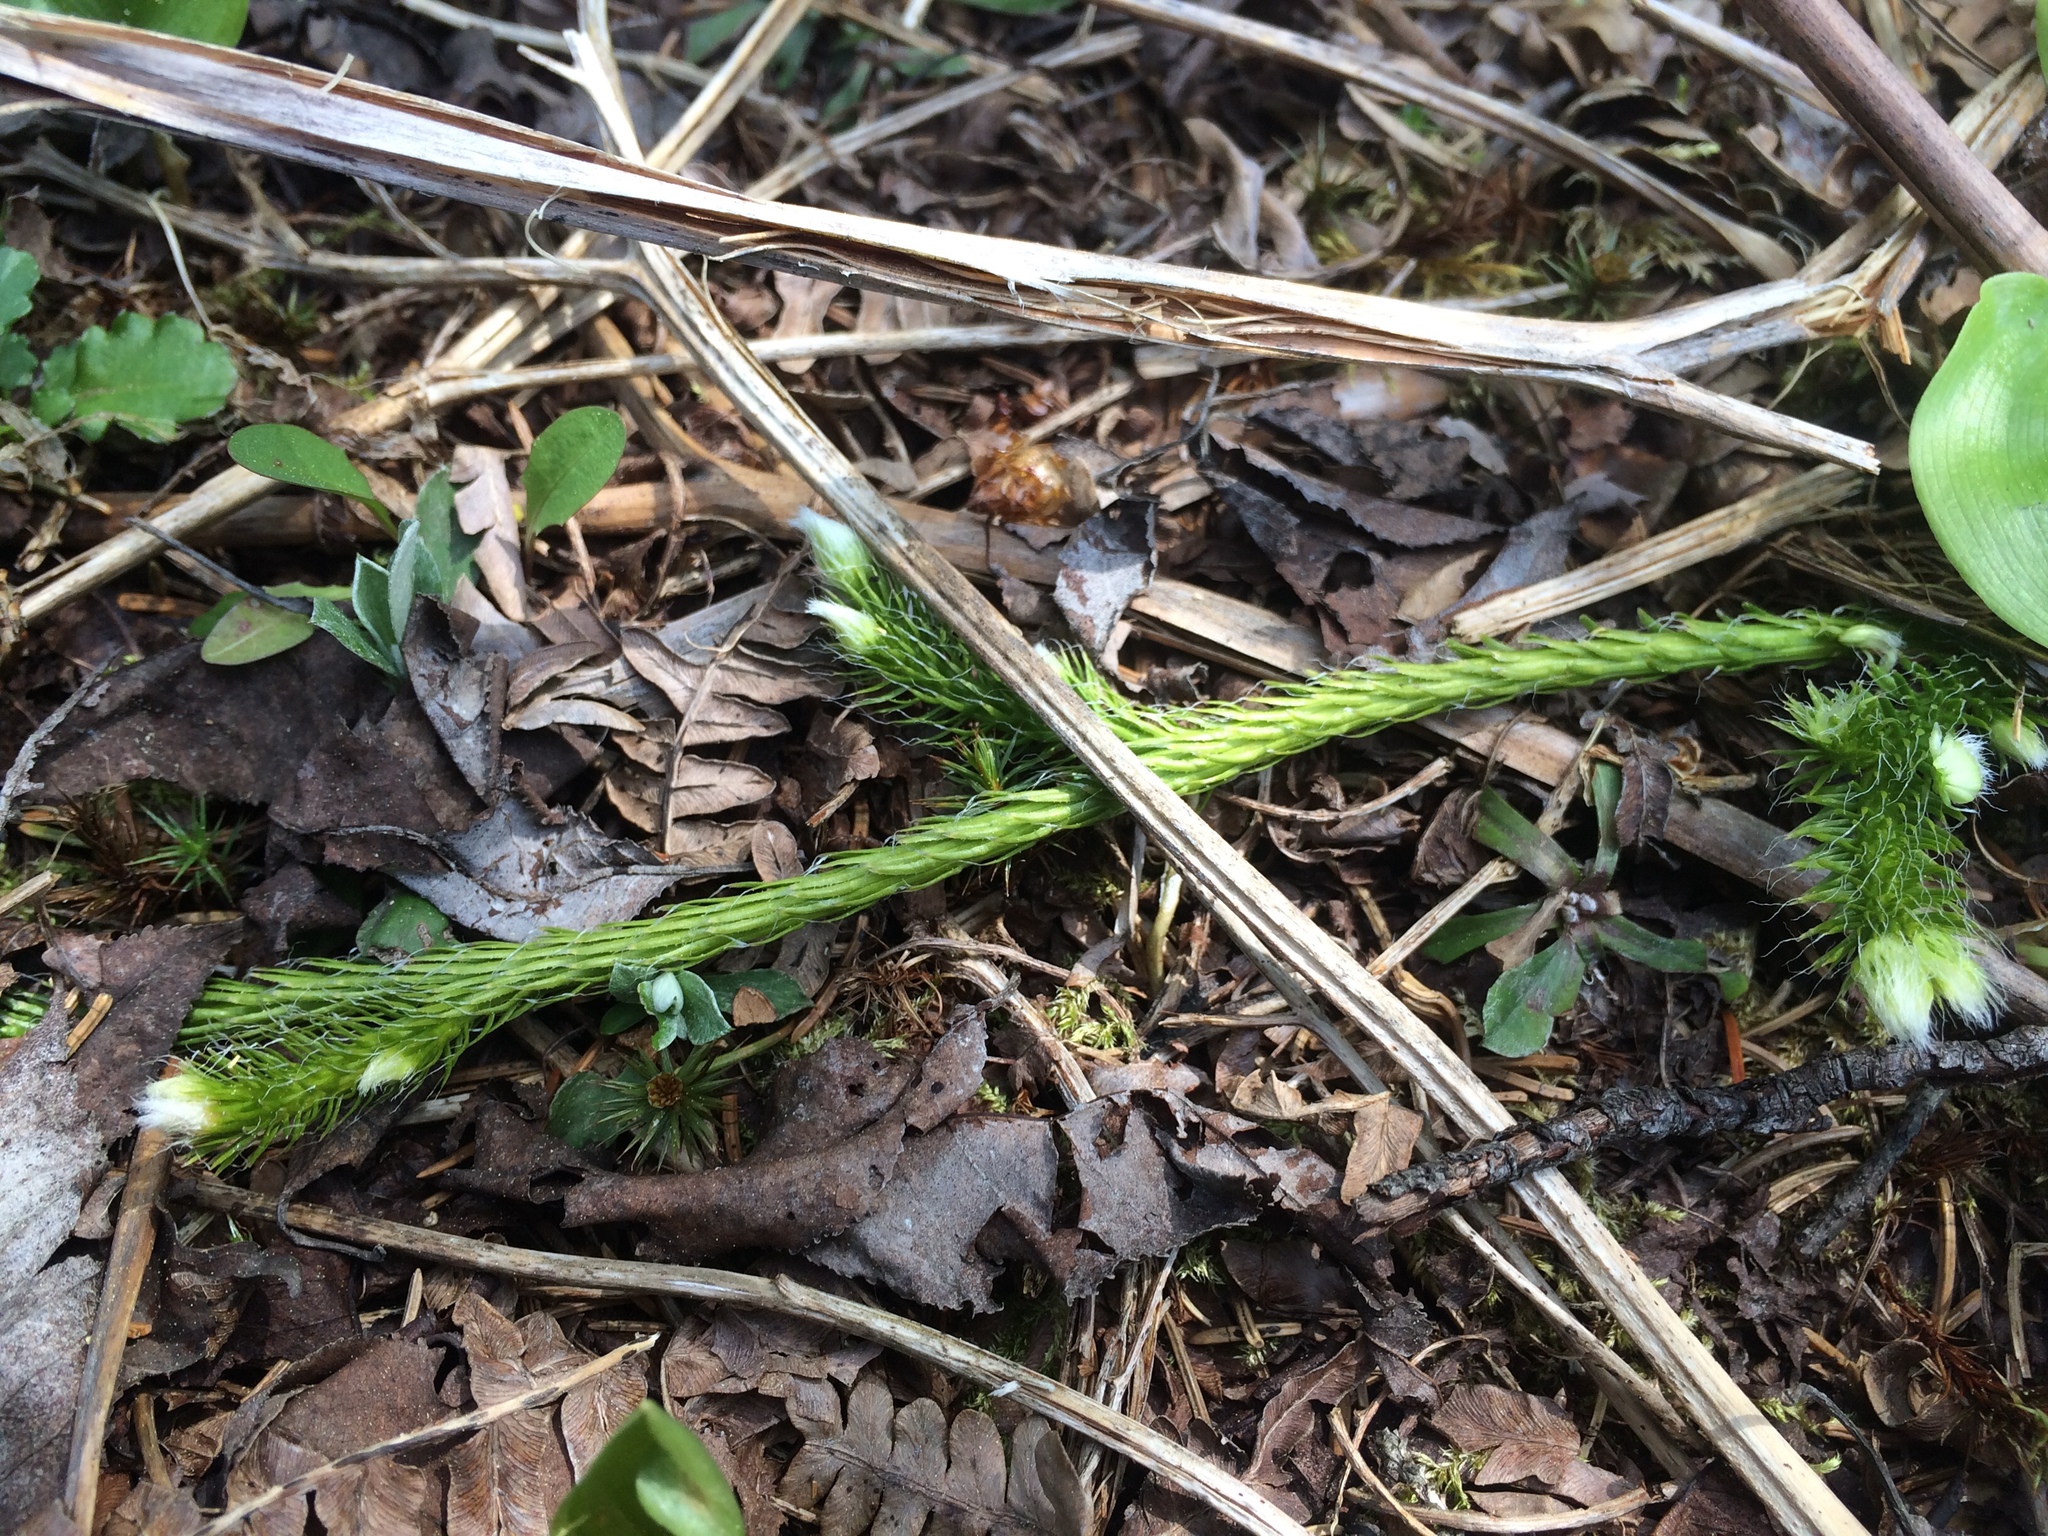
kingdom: Plantae
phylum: Tracheophyta
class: Lycopodiopsida
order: Lycopodiales
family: Lycopodiaceae
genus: Lycopodium
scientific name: Lycopodium clavatum
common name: Stag's-horn clubmoss
